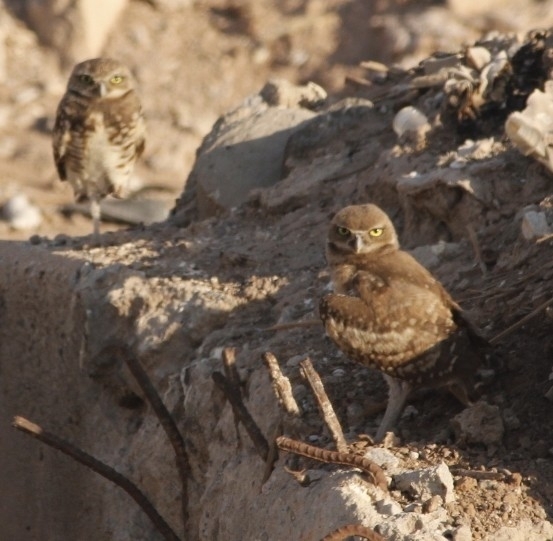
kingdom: Animalia
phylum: Chordata
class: Aves
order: Strigiformes
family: Strigidae
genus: Athene
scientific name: Athene cunicularia
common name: Burrowing owl
